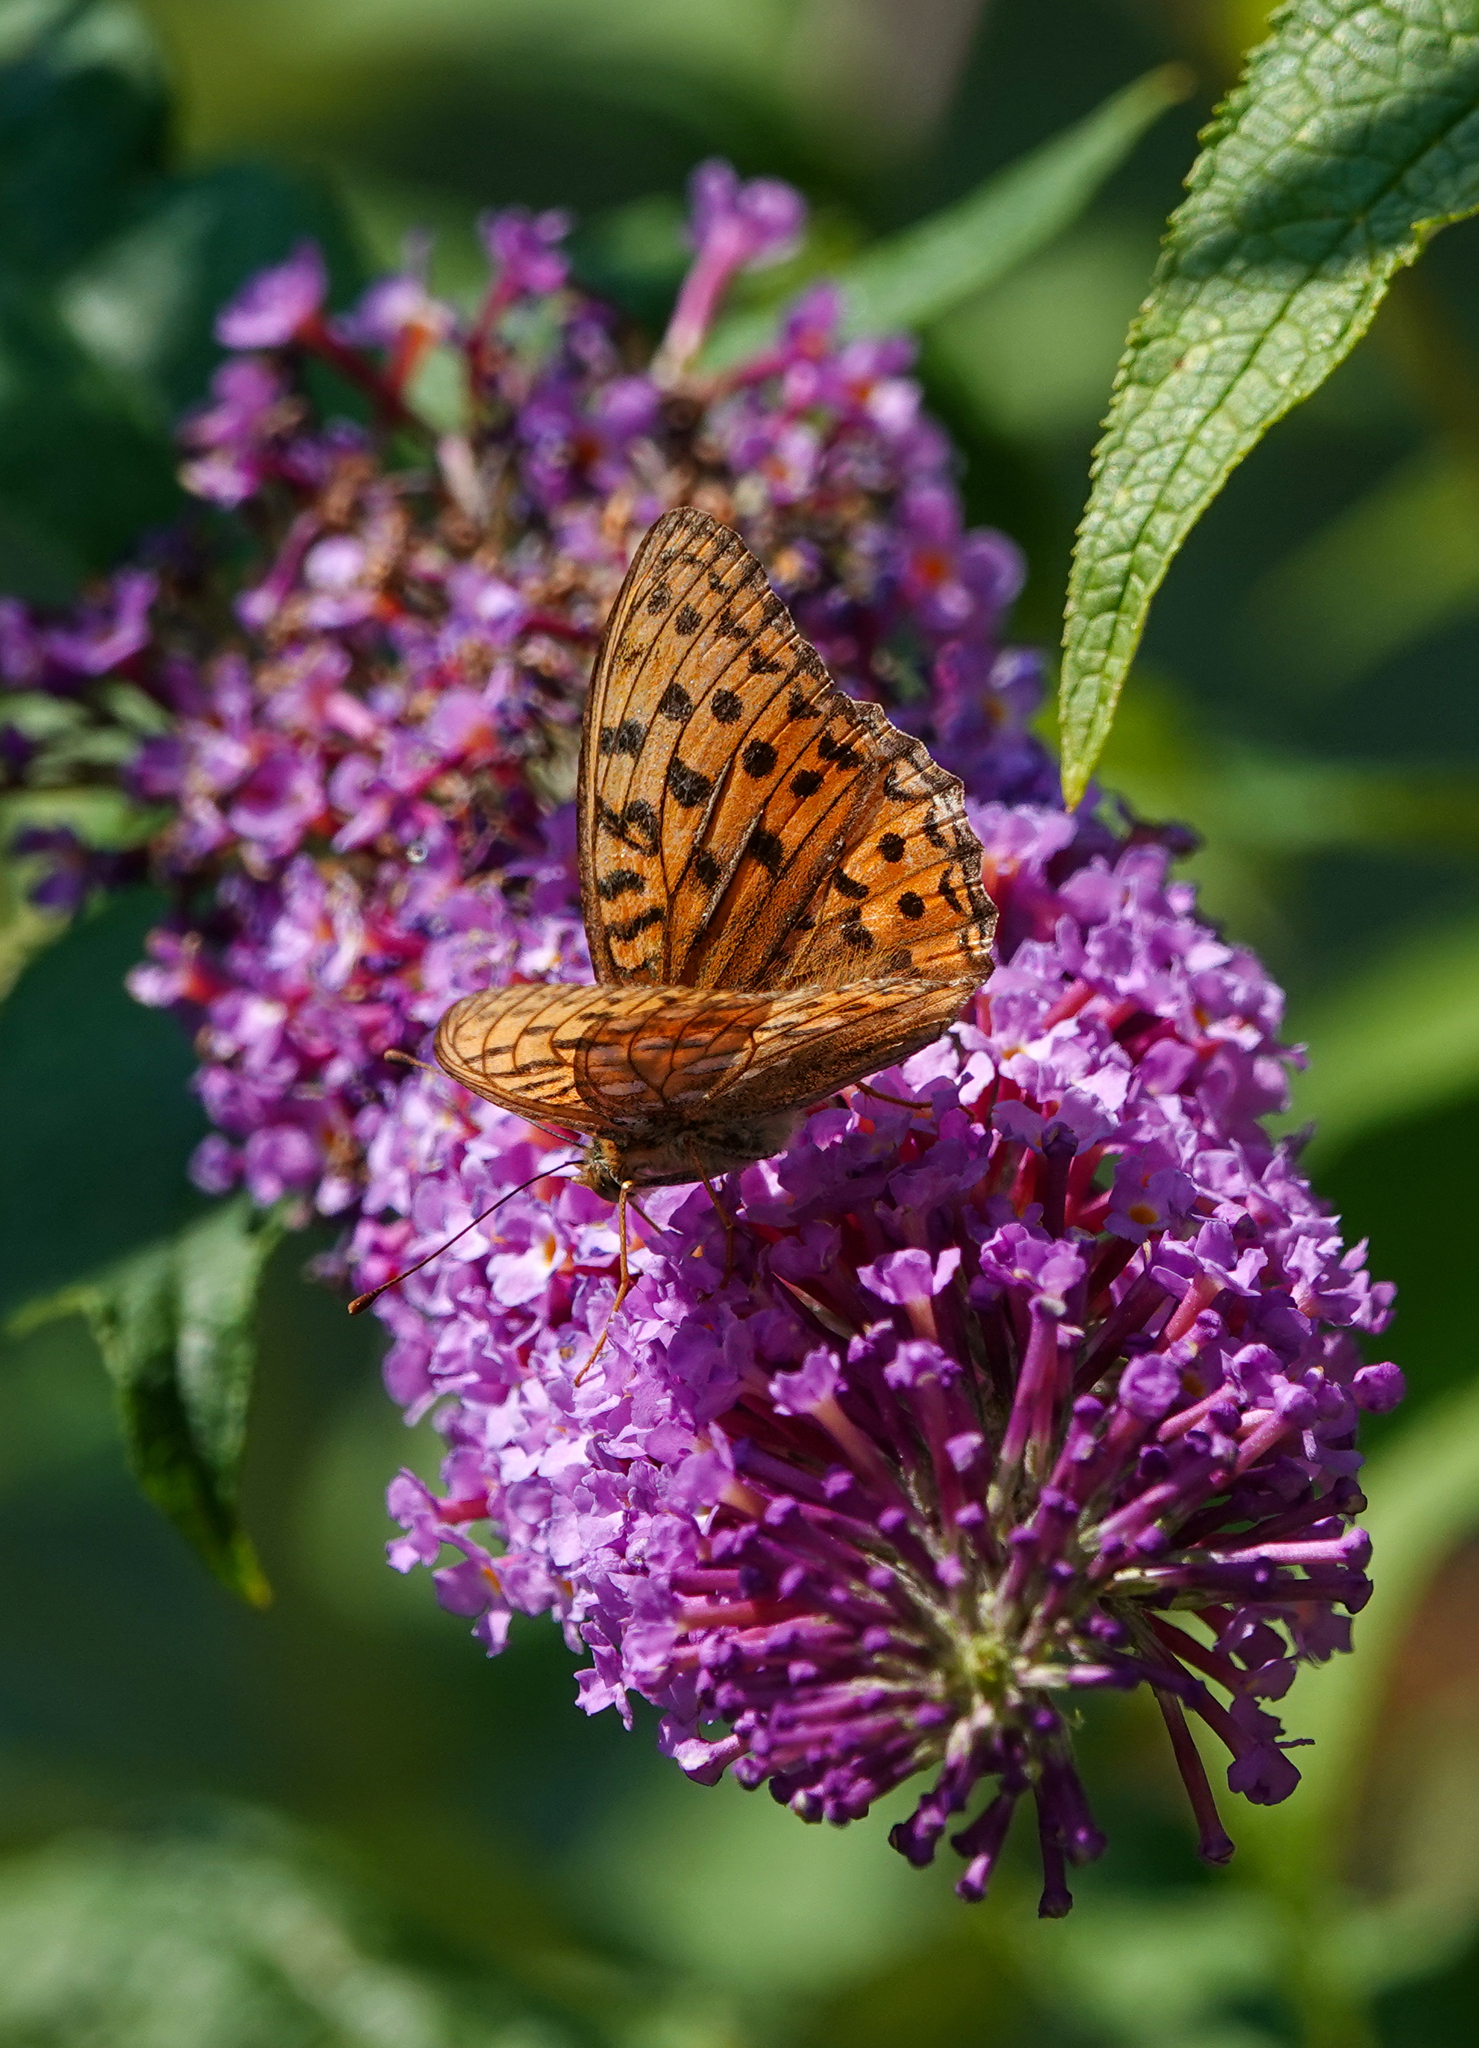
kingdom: Animalia
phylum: Arthropoda
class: Insecta
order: Lepidoptera
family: Nymphalidae
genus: Fabriciana
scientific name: Fabriciana adippe
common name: High brown fritillary
